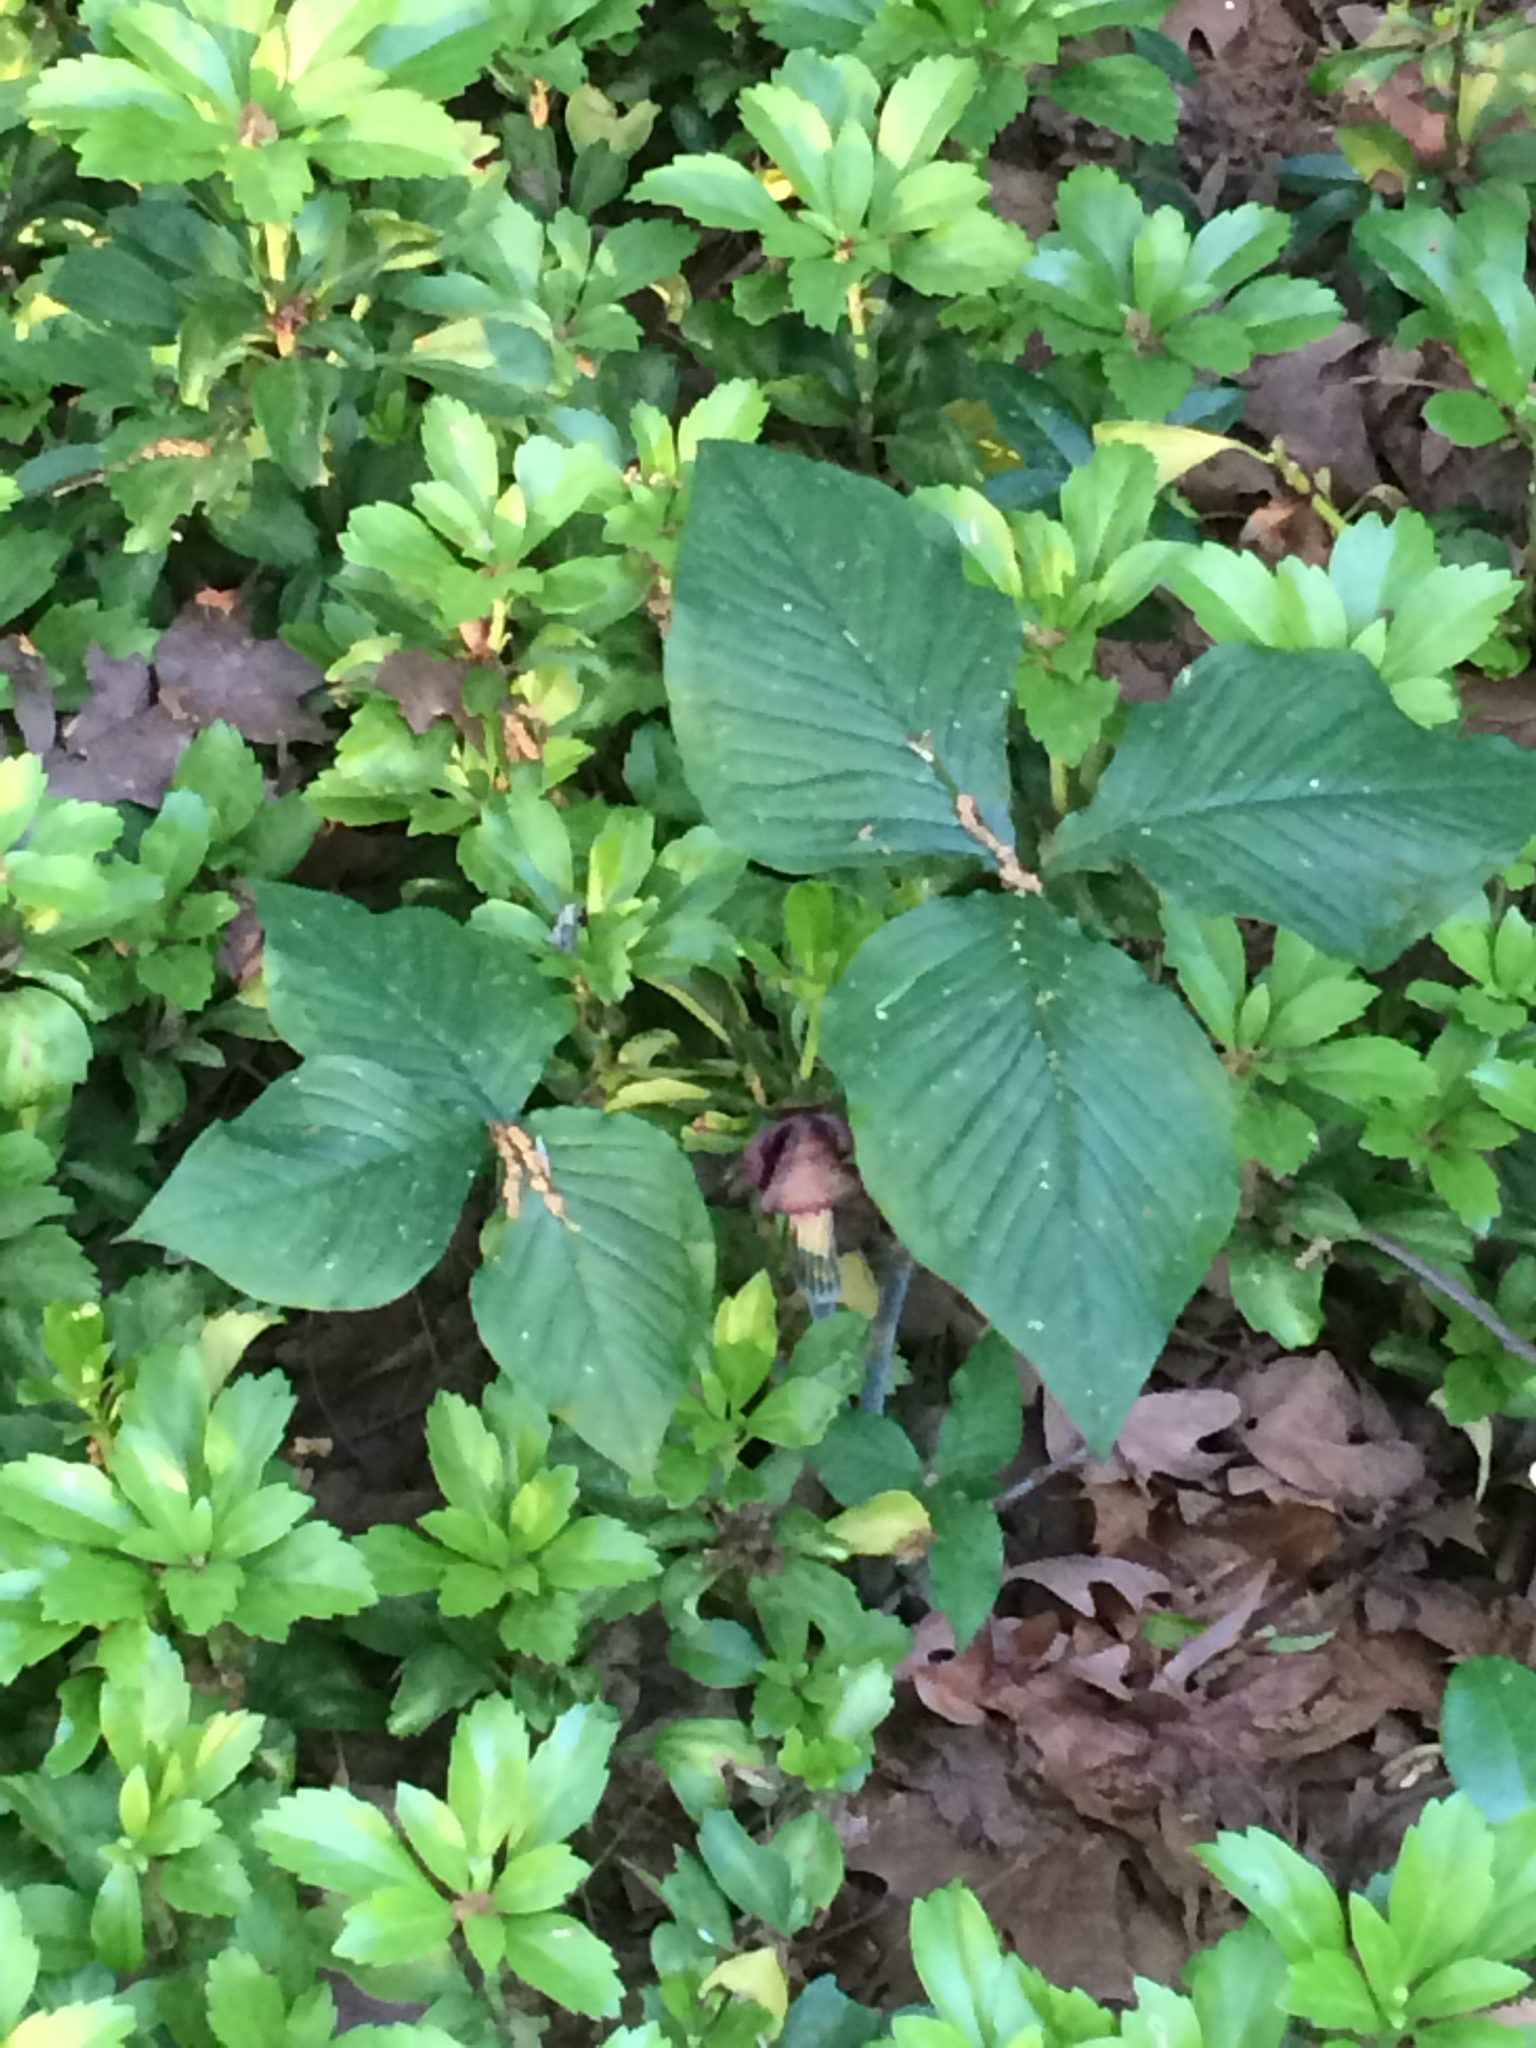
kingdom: Plantae
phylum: Tracheophyta
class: Liliopsida
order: Alismatales
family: Araceae
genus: Arisaema
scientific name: Arisaema triphyllum
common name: Jack-in-the-pulpit
